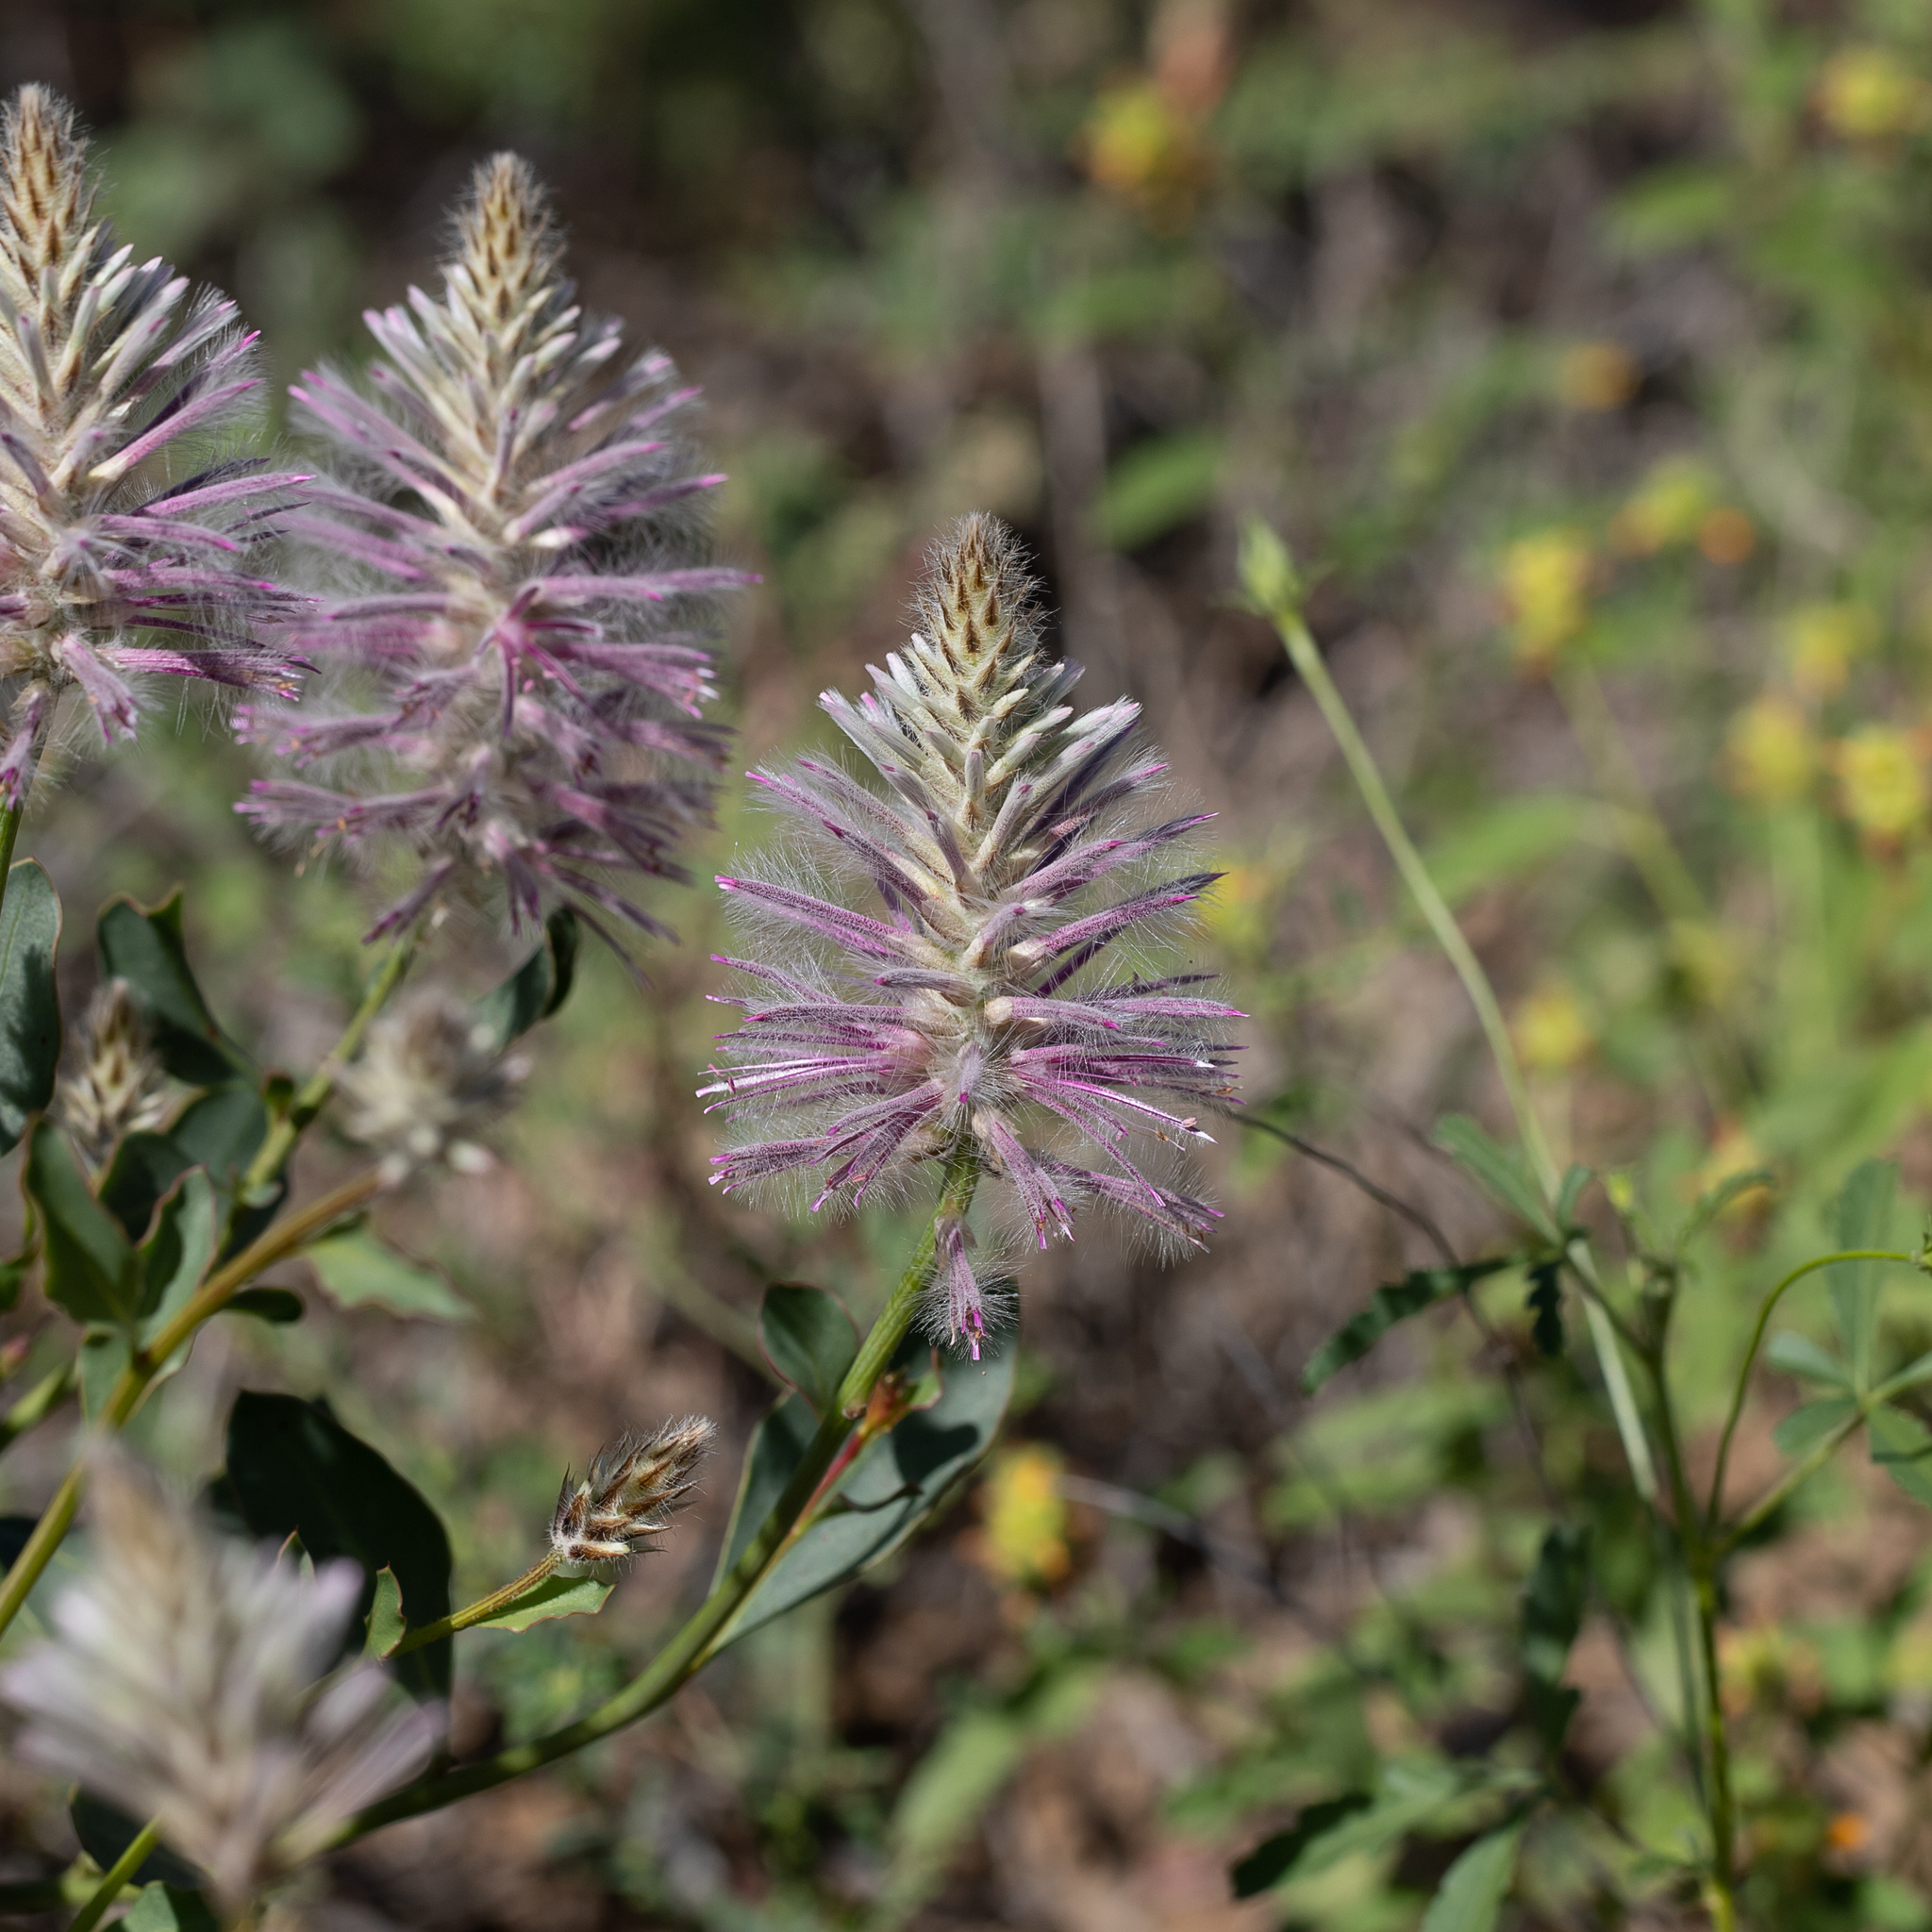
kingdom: Plantae
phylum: Tracheophyta
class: Magnoliopsida
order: Caryophyllales
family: Amaranthaceae
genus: Ptilotus
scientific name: Ptilotus exaltatus
